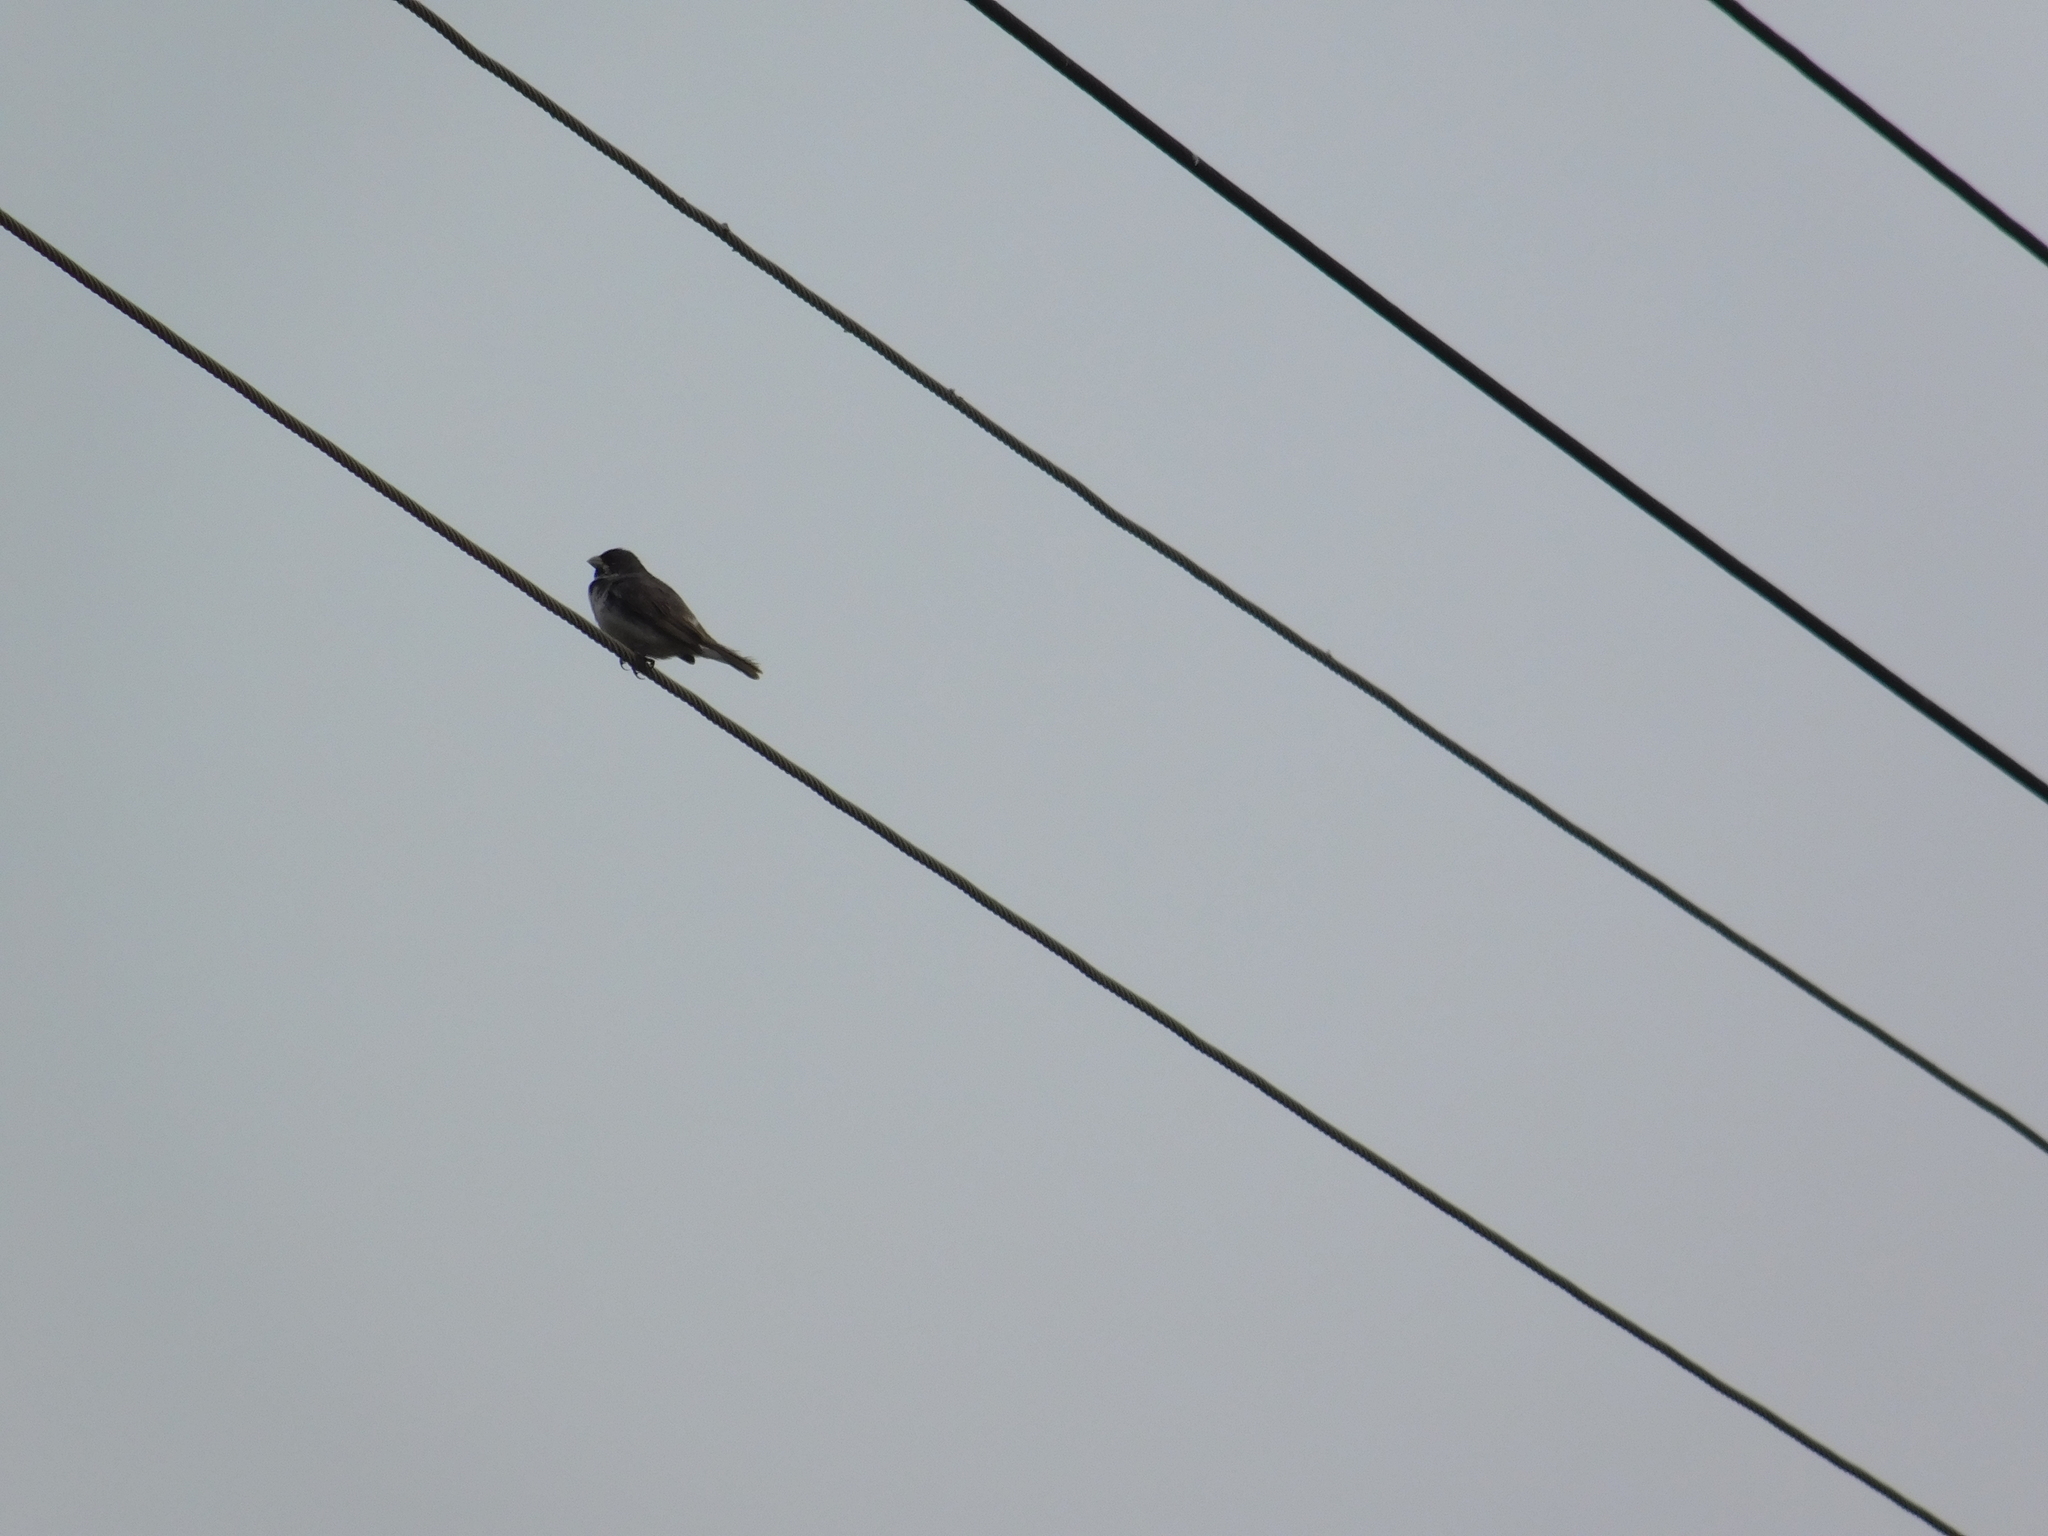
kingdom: Animalia
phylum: Chordata
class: Aves
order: Passeriformes
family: Thraupidae
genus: Sporophila
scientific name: Sporophila caerulescens
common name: Double-collared seedeater
